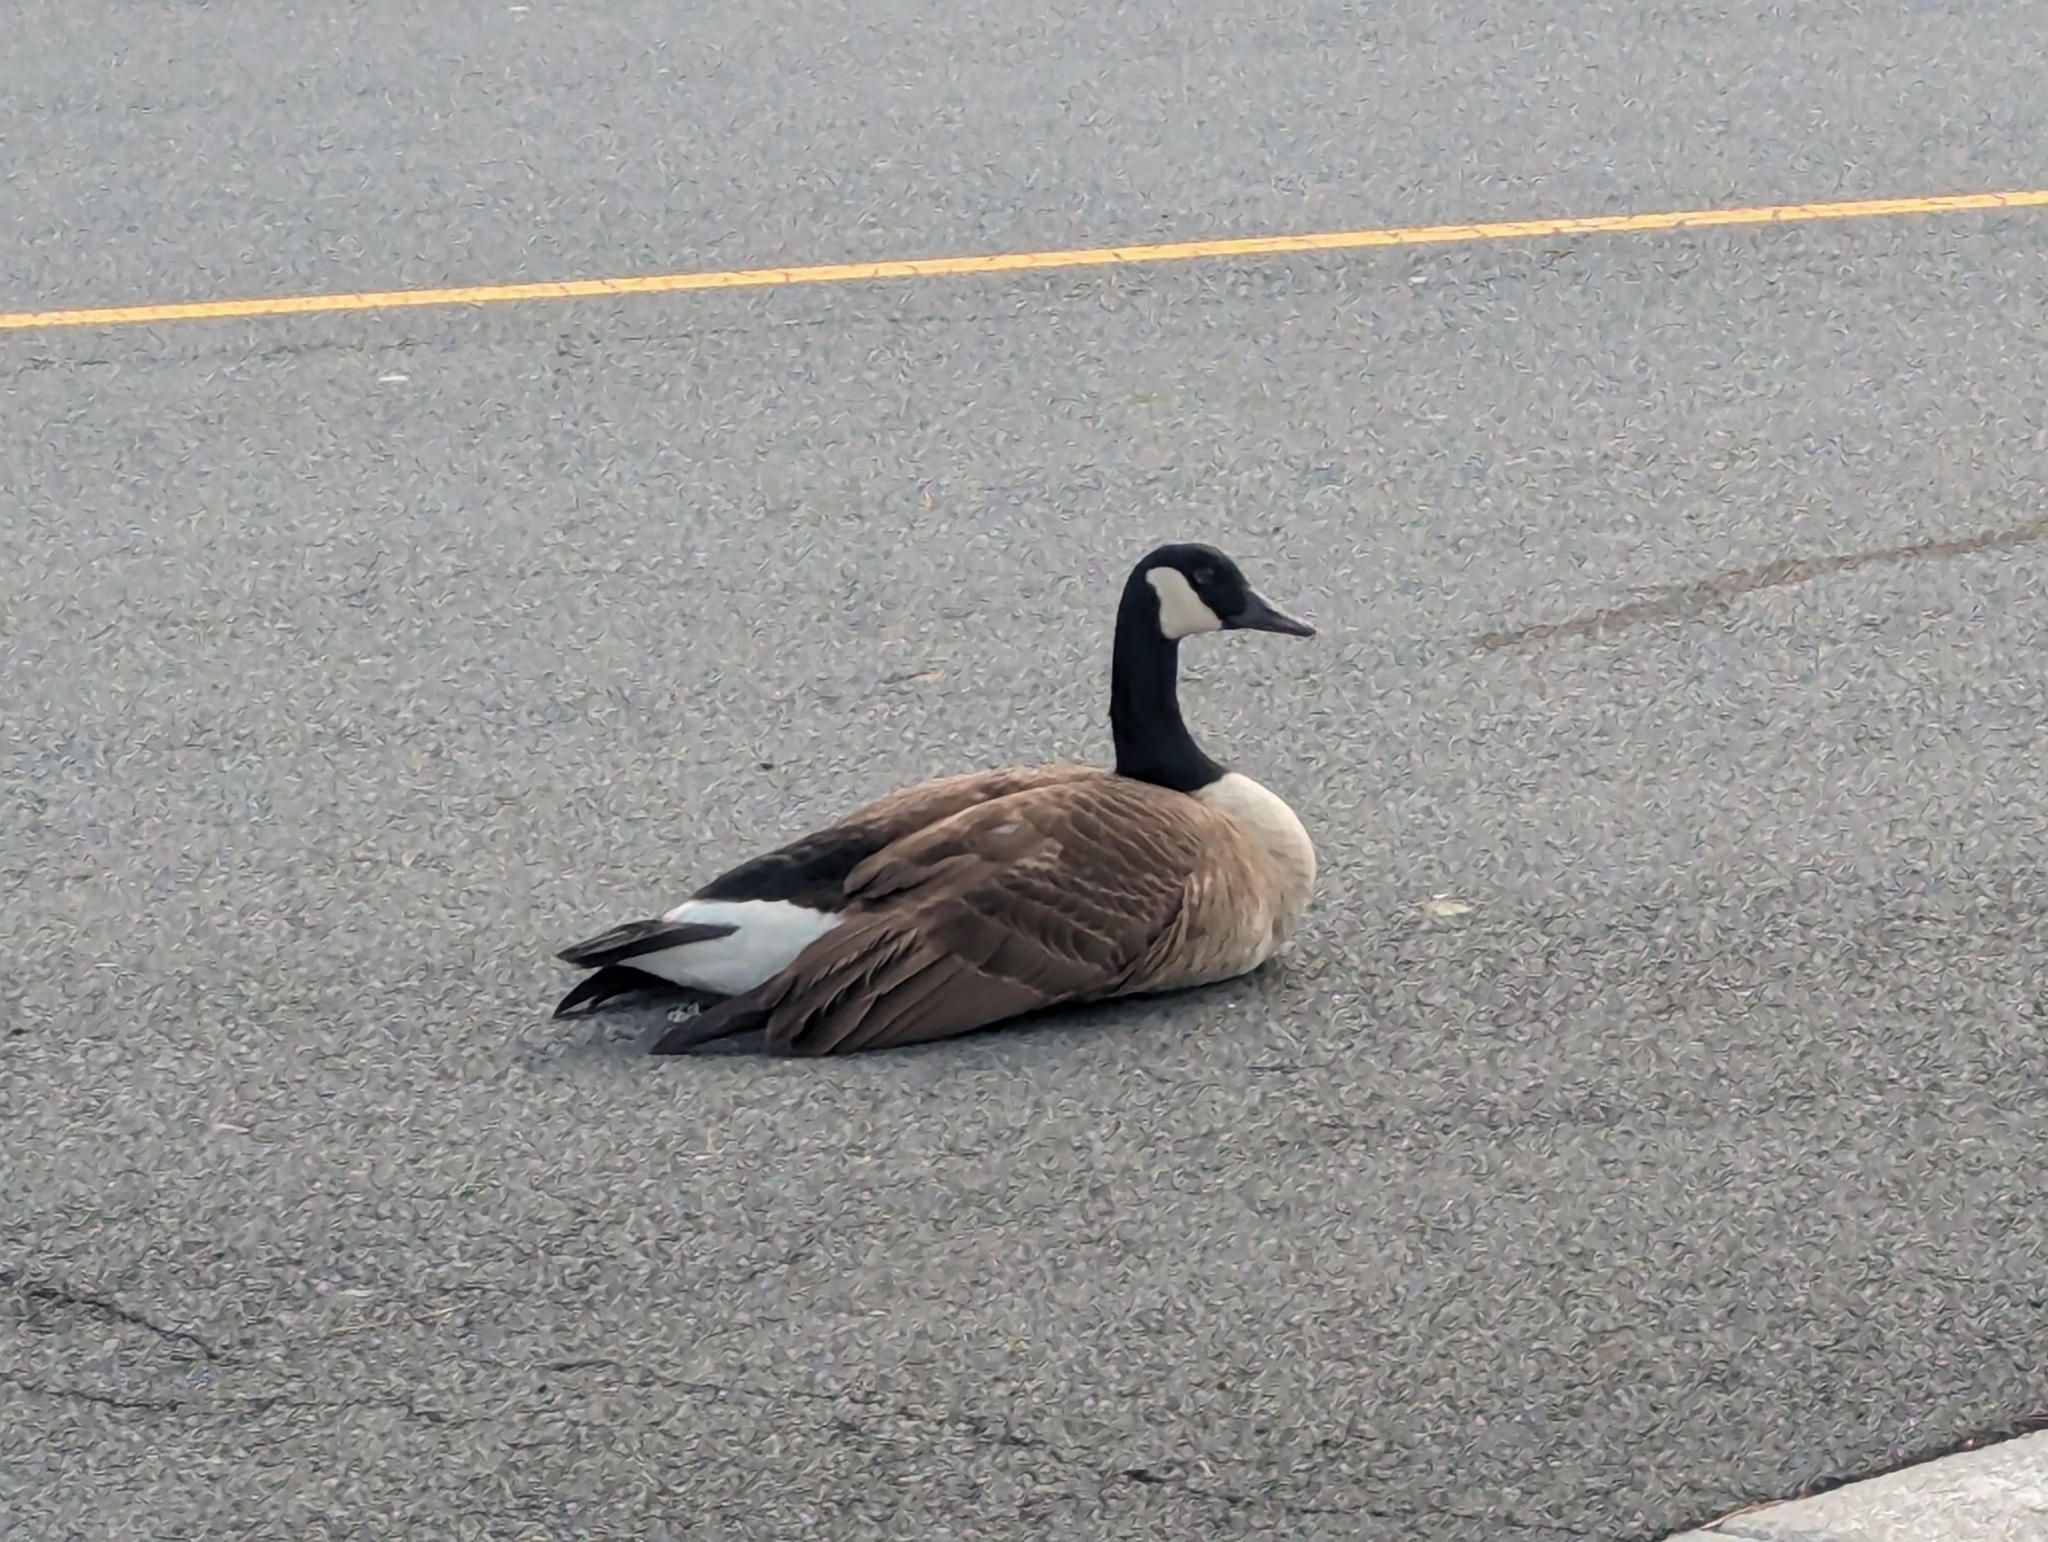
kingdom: Animalia
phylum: Chordata
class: Aves
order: Anseriformes
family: Anatidae
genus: Branta
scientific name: Branta canadensis
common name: Canada goose
